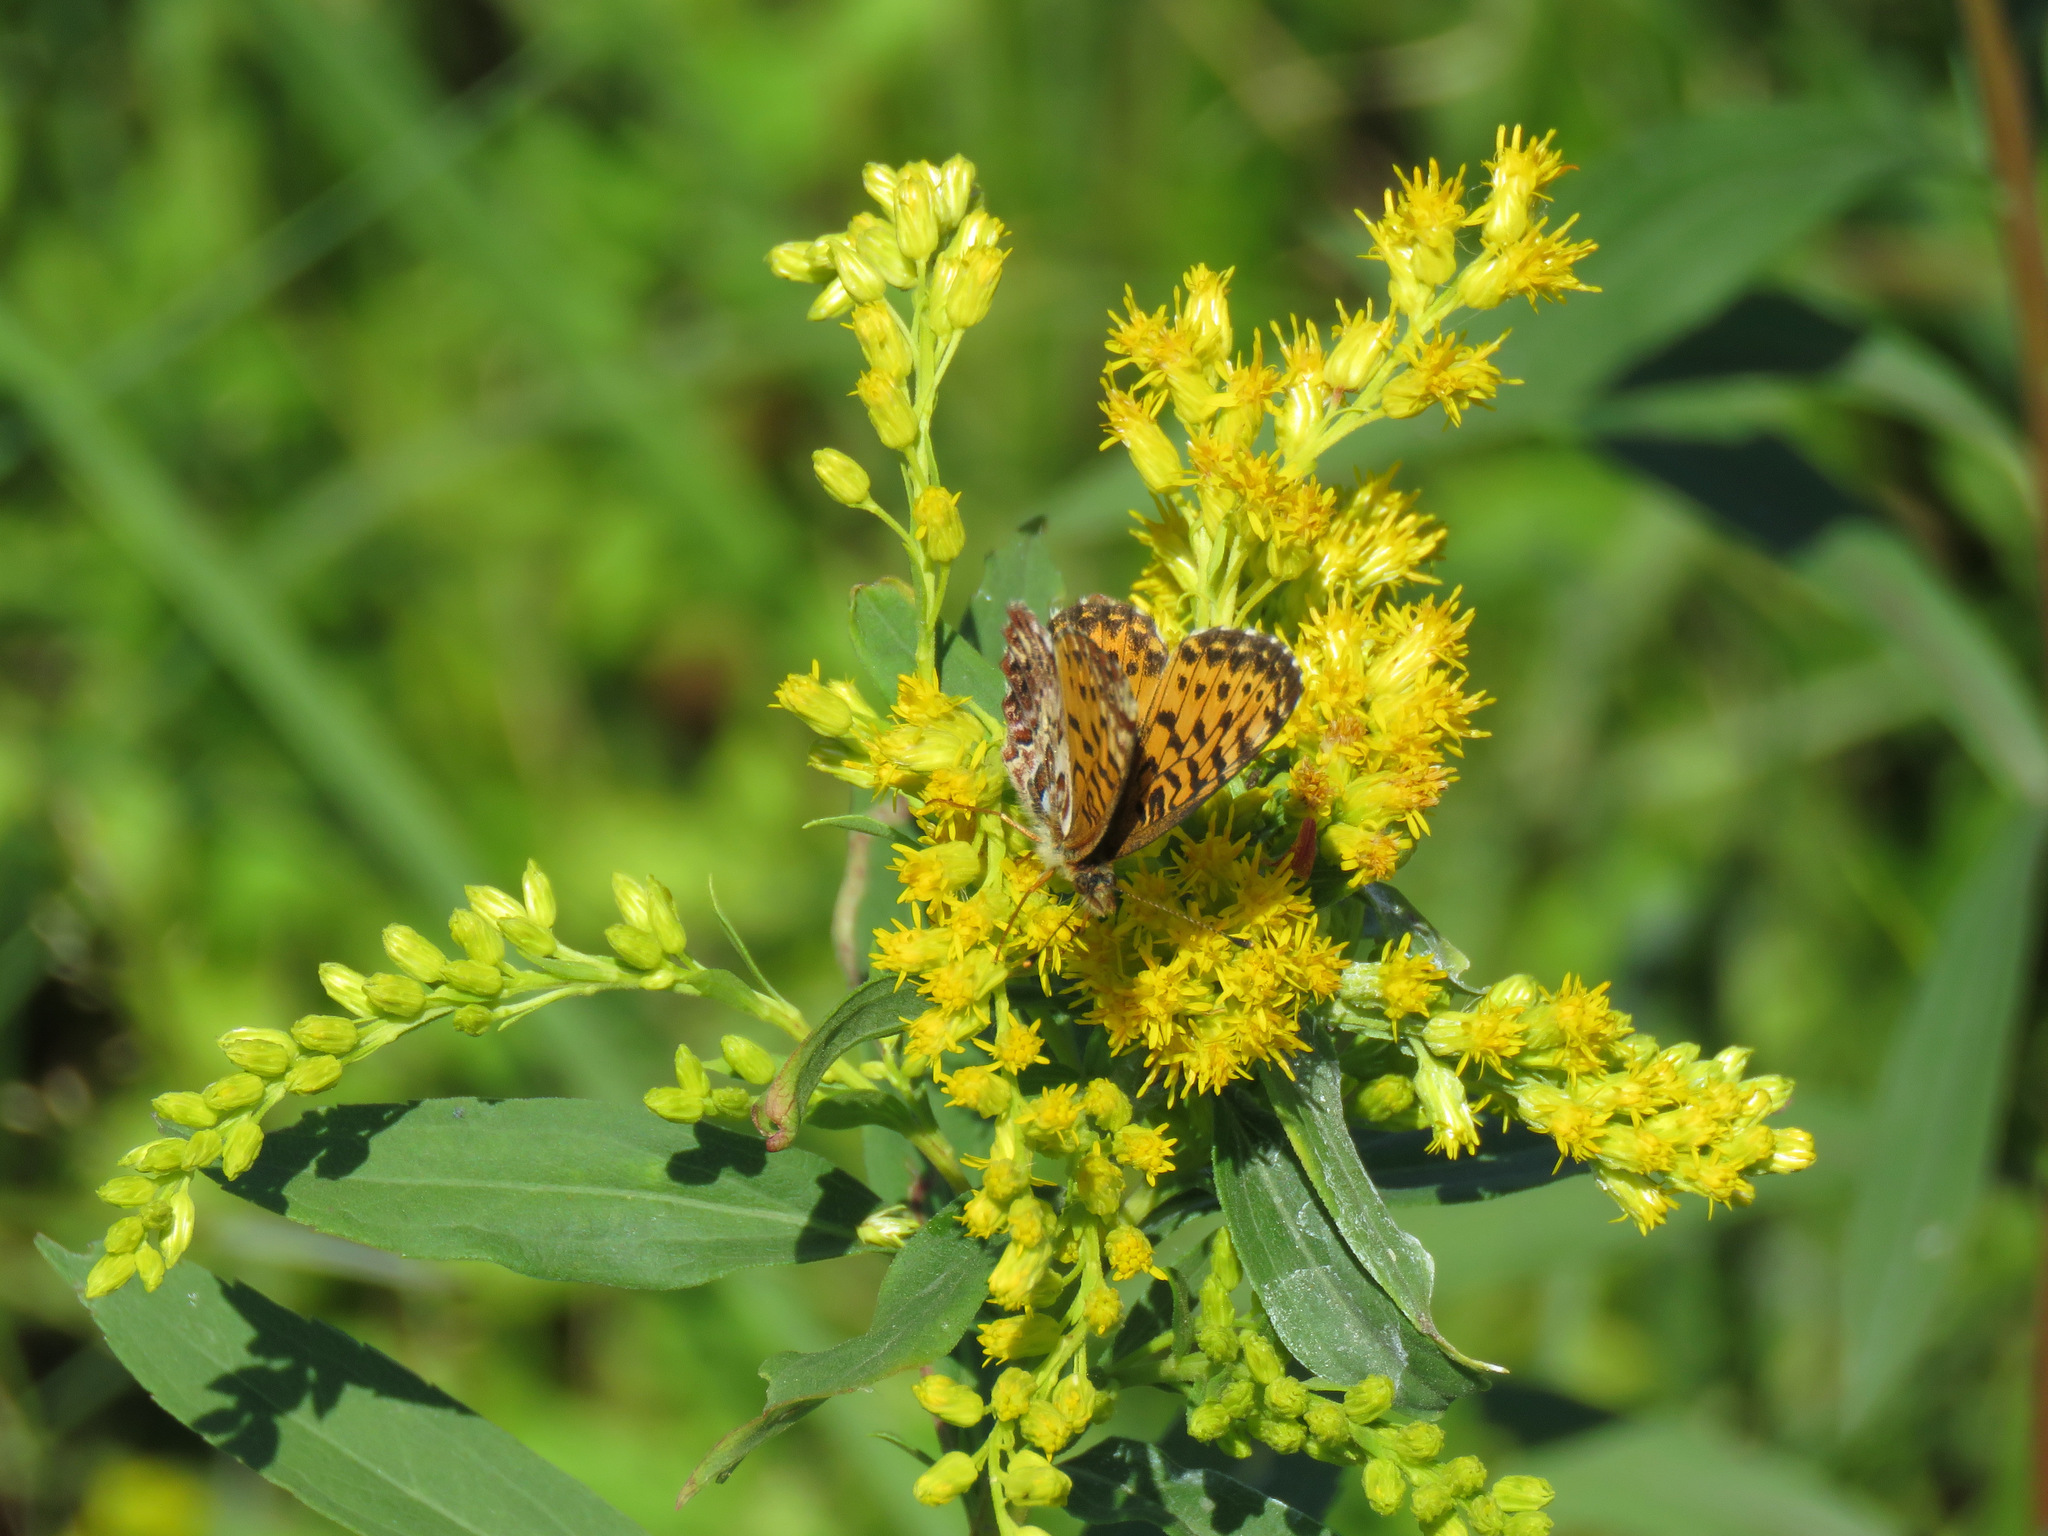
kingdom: Animalia
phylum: Arthropoda
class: Insecta
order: Lepidoptera
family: Nymphalidae
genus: Boloria
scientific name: Boloria chariclea
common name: Arctic fritillary
